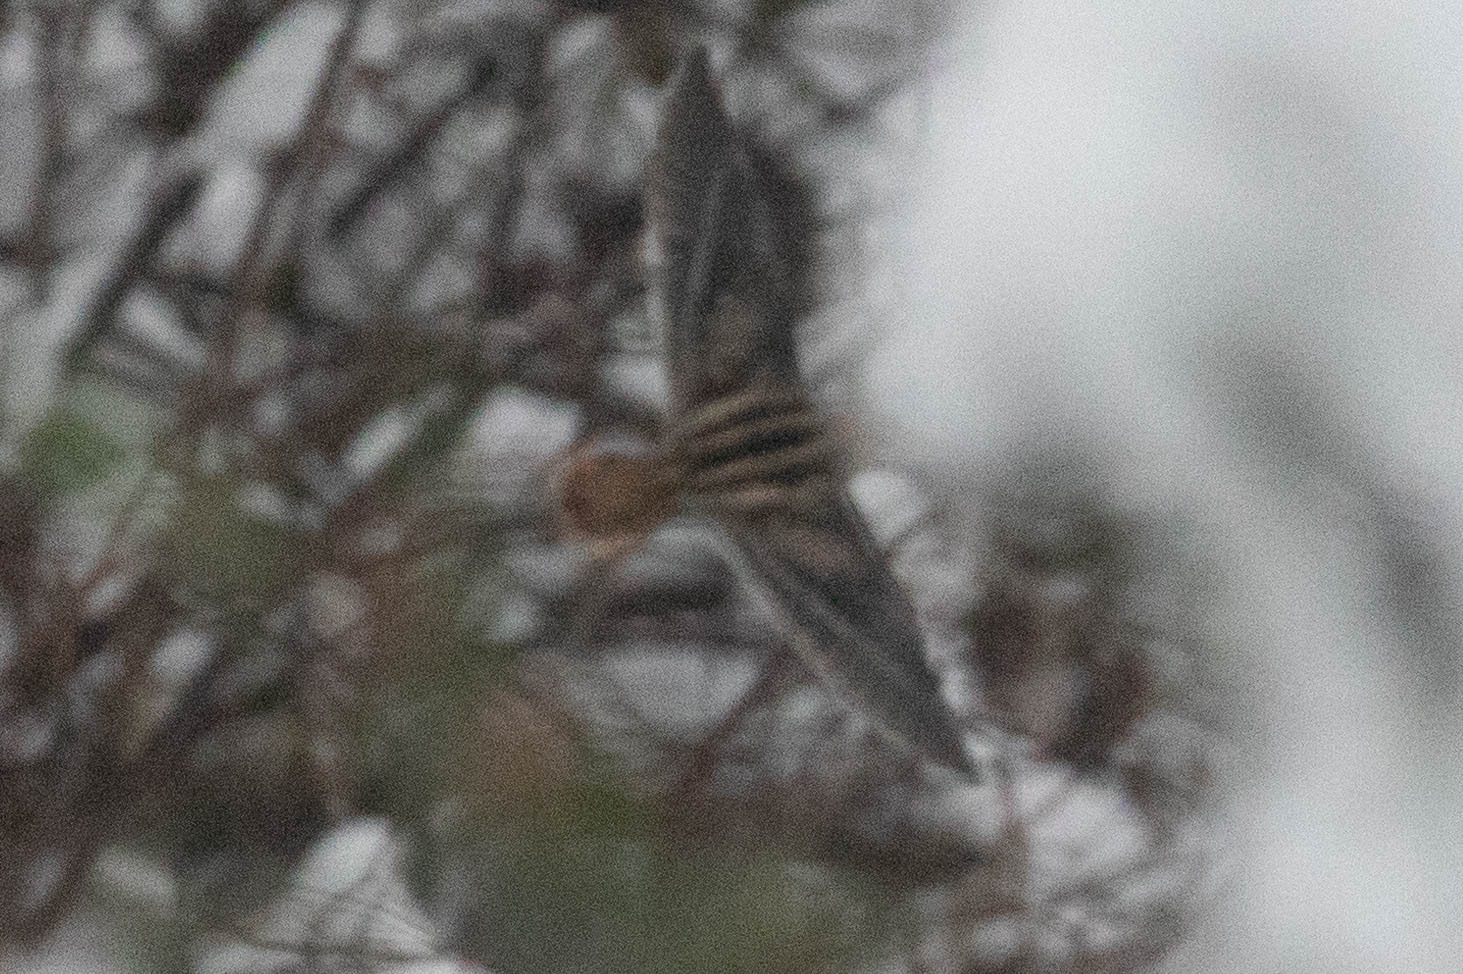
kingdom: Animalia
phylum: Chordata
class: Aves
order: Charadriiformes
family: Scolopacidae
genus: Gallinago
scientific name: Gallinago delicata
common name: Wilson's snipe
